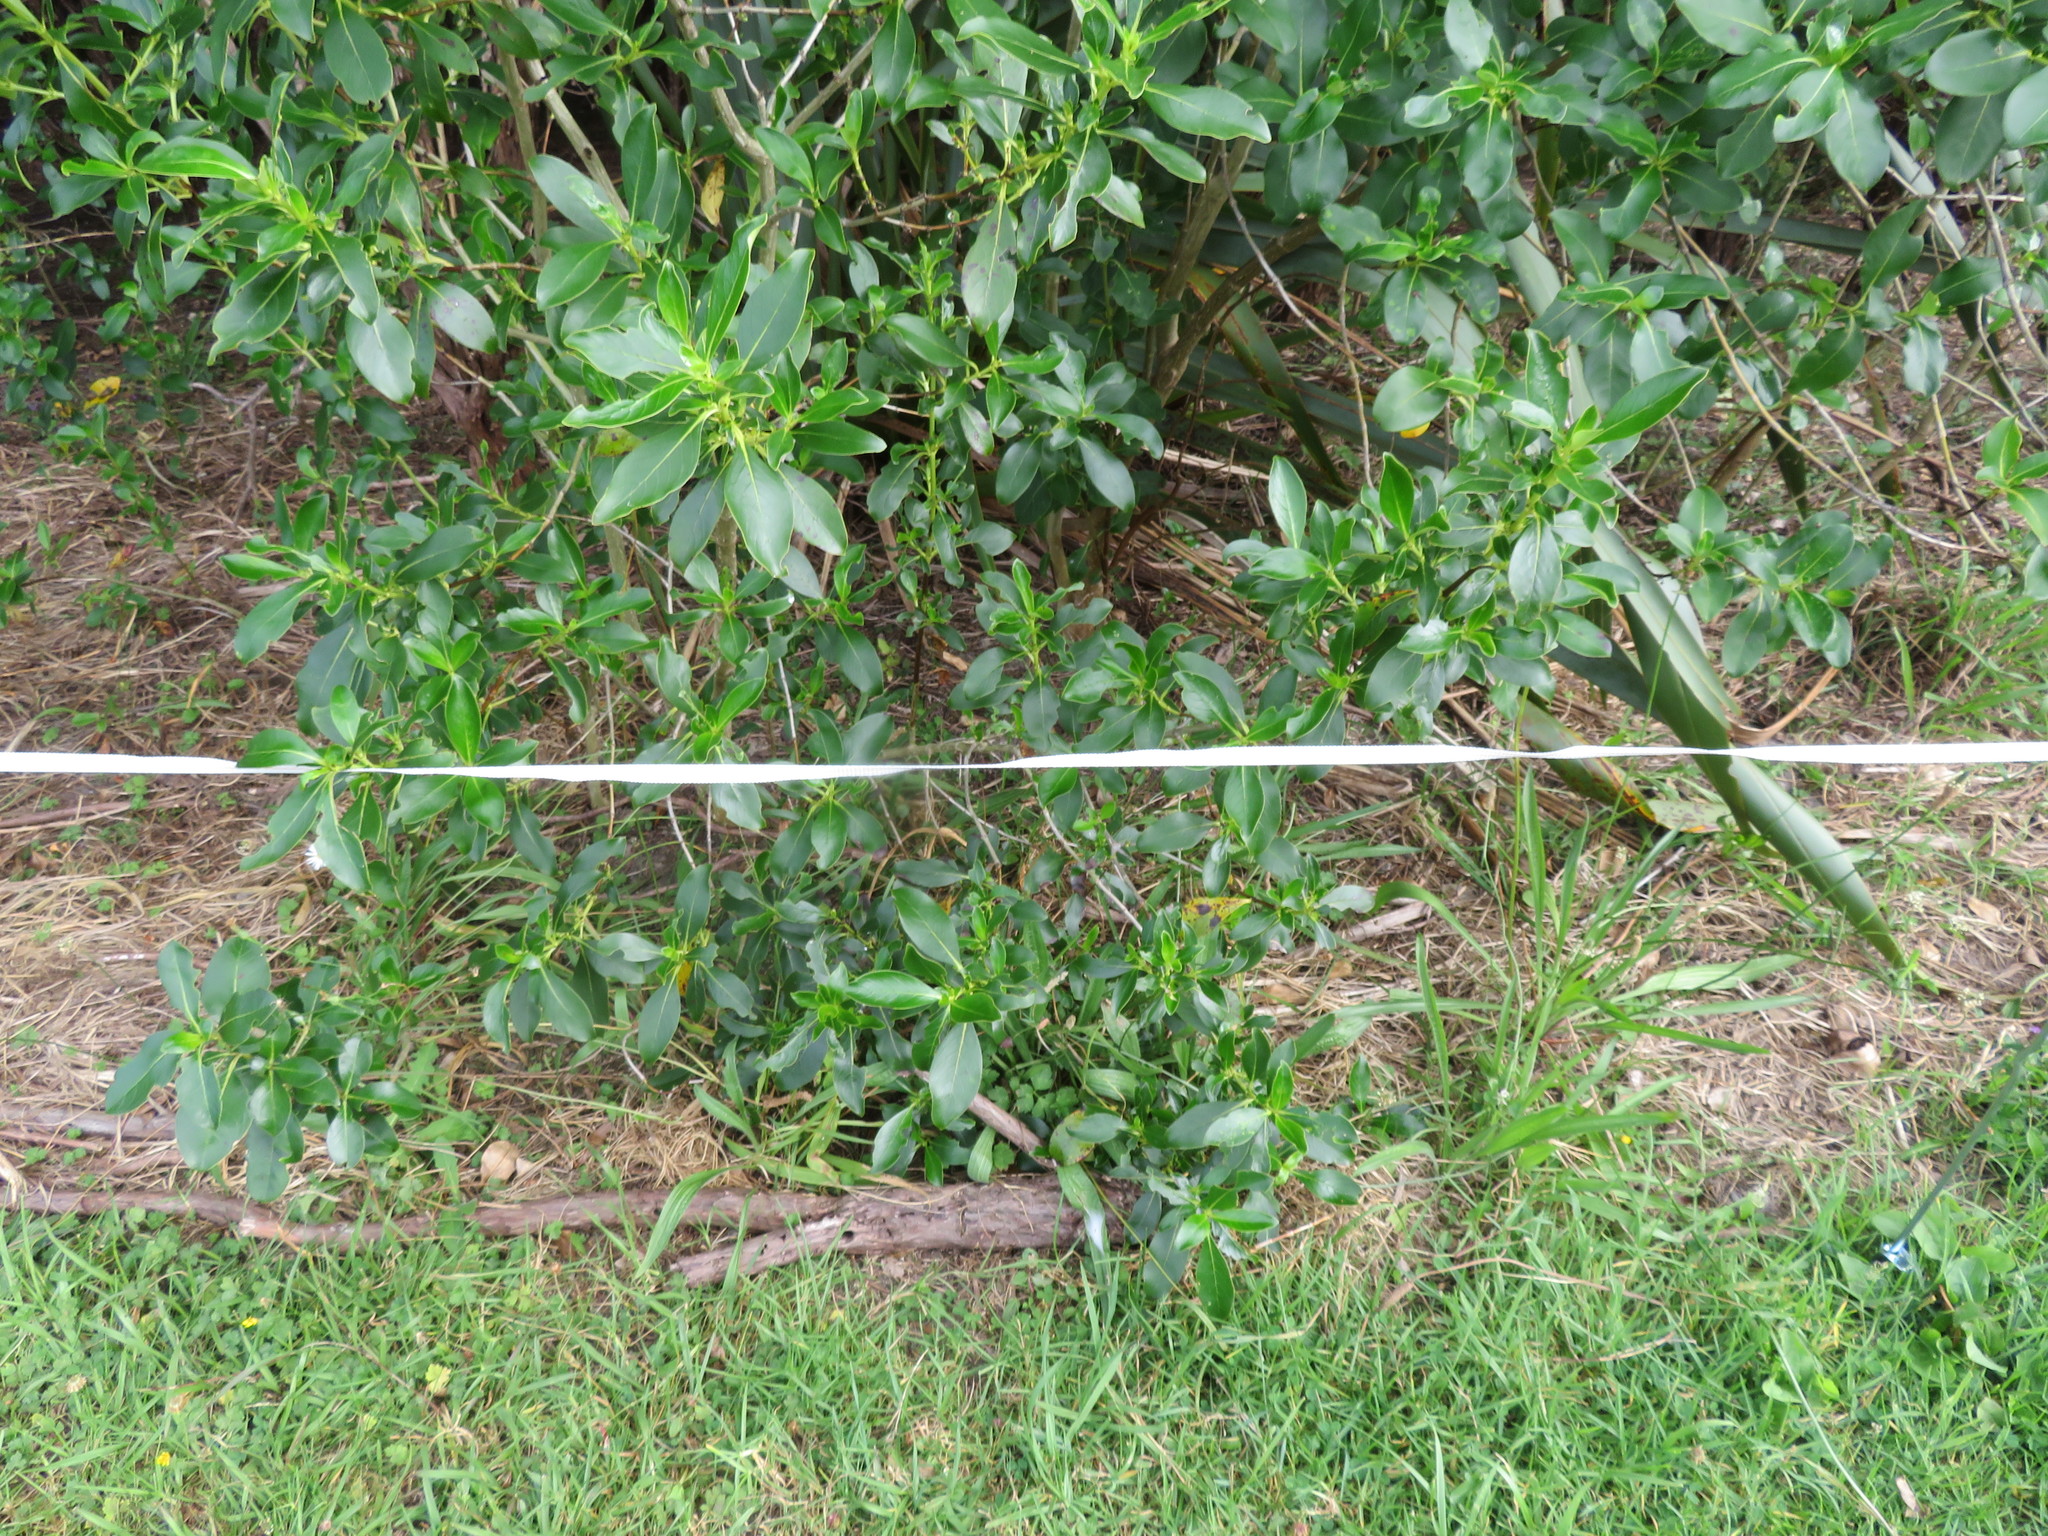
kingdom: Plantae
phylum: Tracheophyta
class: Magnoliopsida
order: Gentianales
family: Rubiaceae
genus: Coprosma
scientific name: Coprosma robusta
